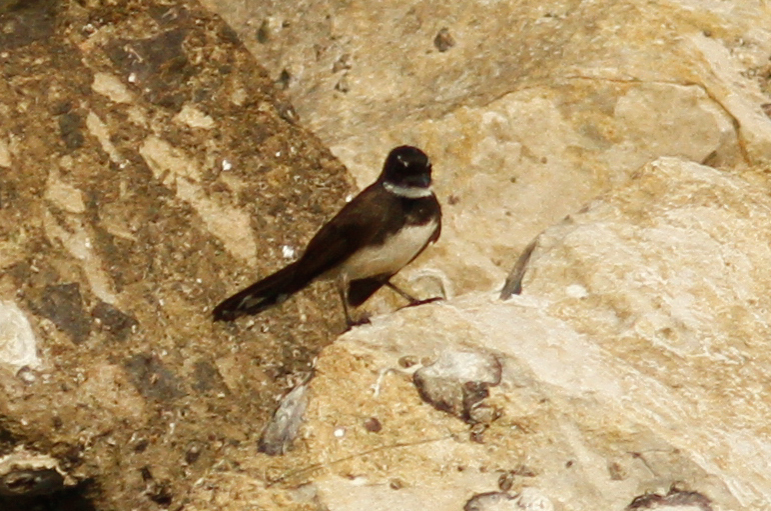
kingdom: Animalia
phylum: Chordata
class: Aves
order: Passeriformes
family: Rhipiduridae
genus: Rhipidura
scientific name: Rhipidura javanica
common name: Pied fantail
